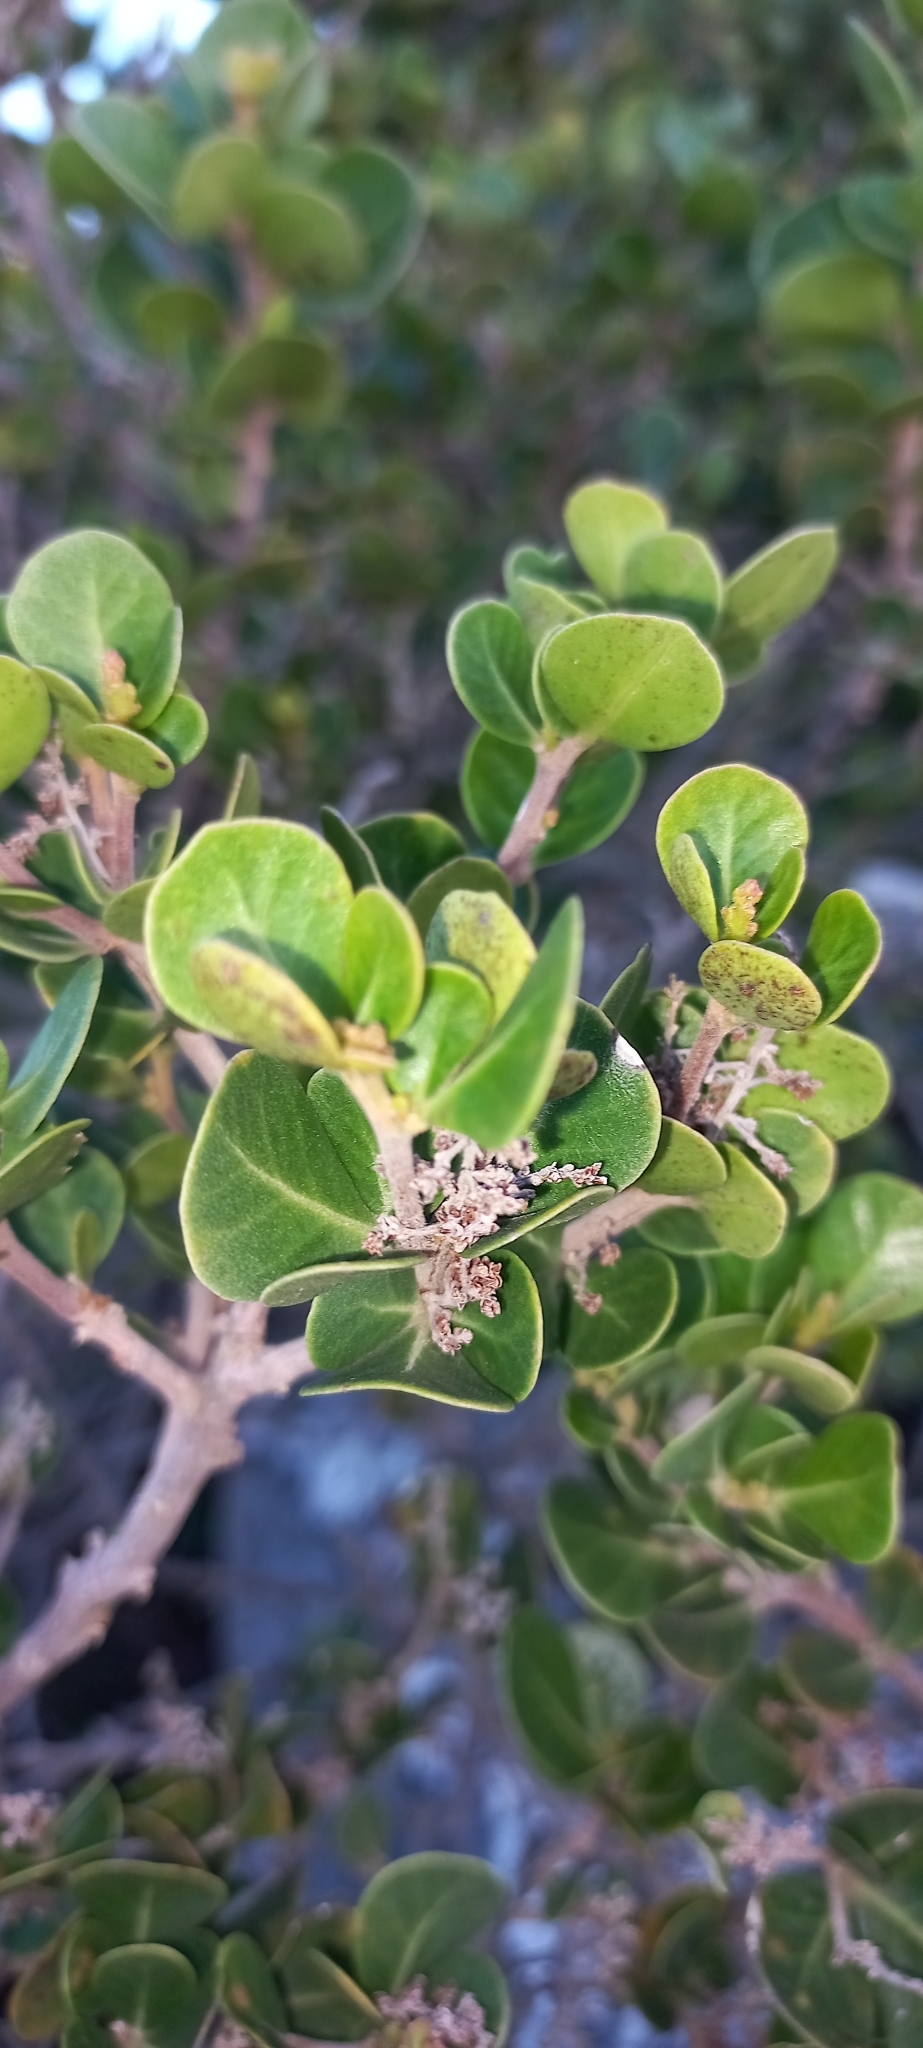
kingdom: Plantae
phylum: Tracheophyta
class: Magnoliopsida
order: Sapindales
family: Anacardiaceae
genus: Searsia
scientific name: Searsia lucida
